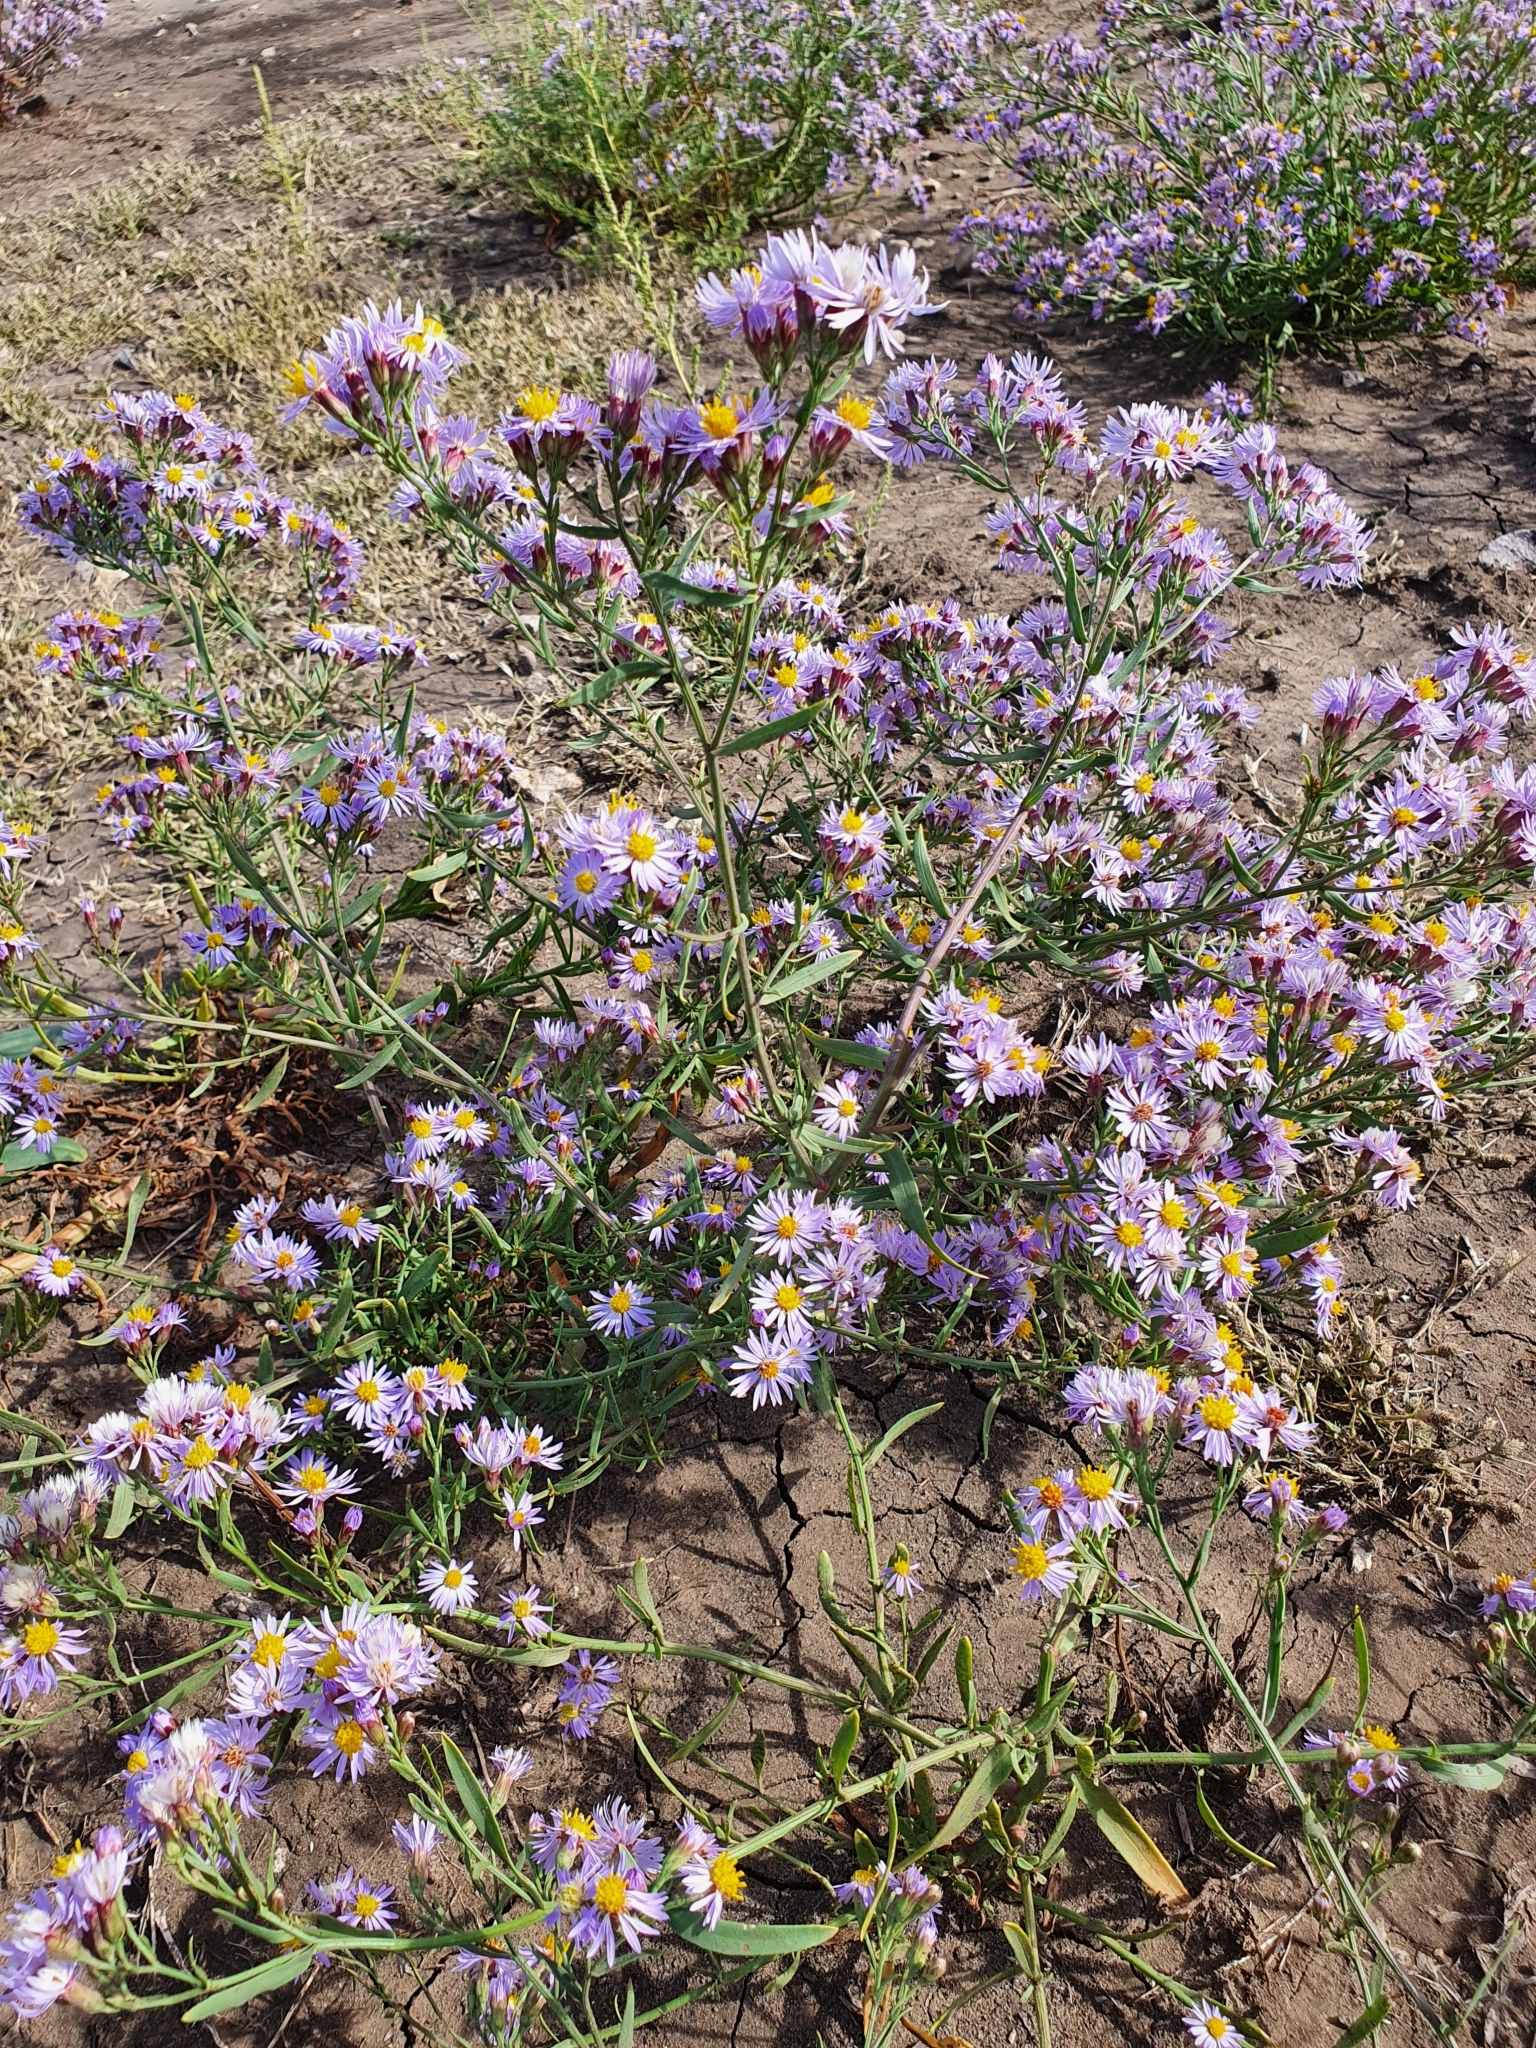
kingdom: Plantae
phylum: Tracheophyta
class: Magnoliopsida
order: Asterales
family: Asteraceae
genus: Tripolium
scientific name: Tripolium pannonicum
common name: Sea aster
